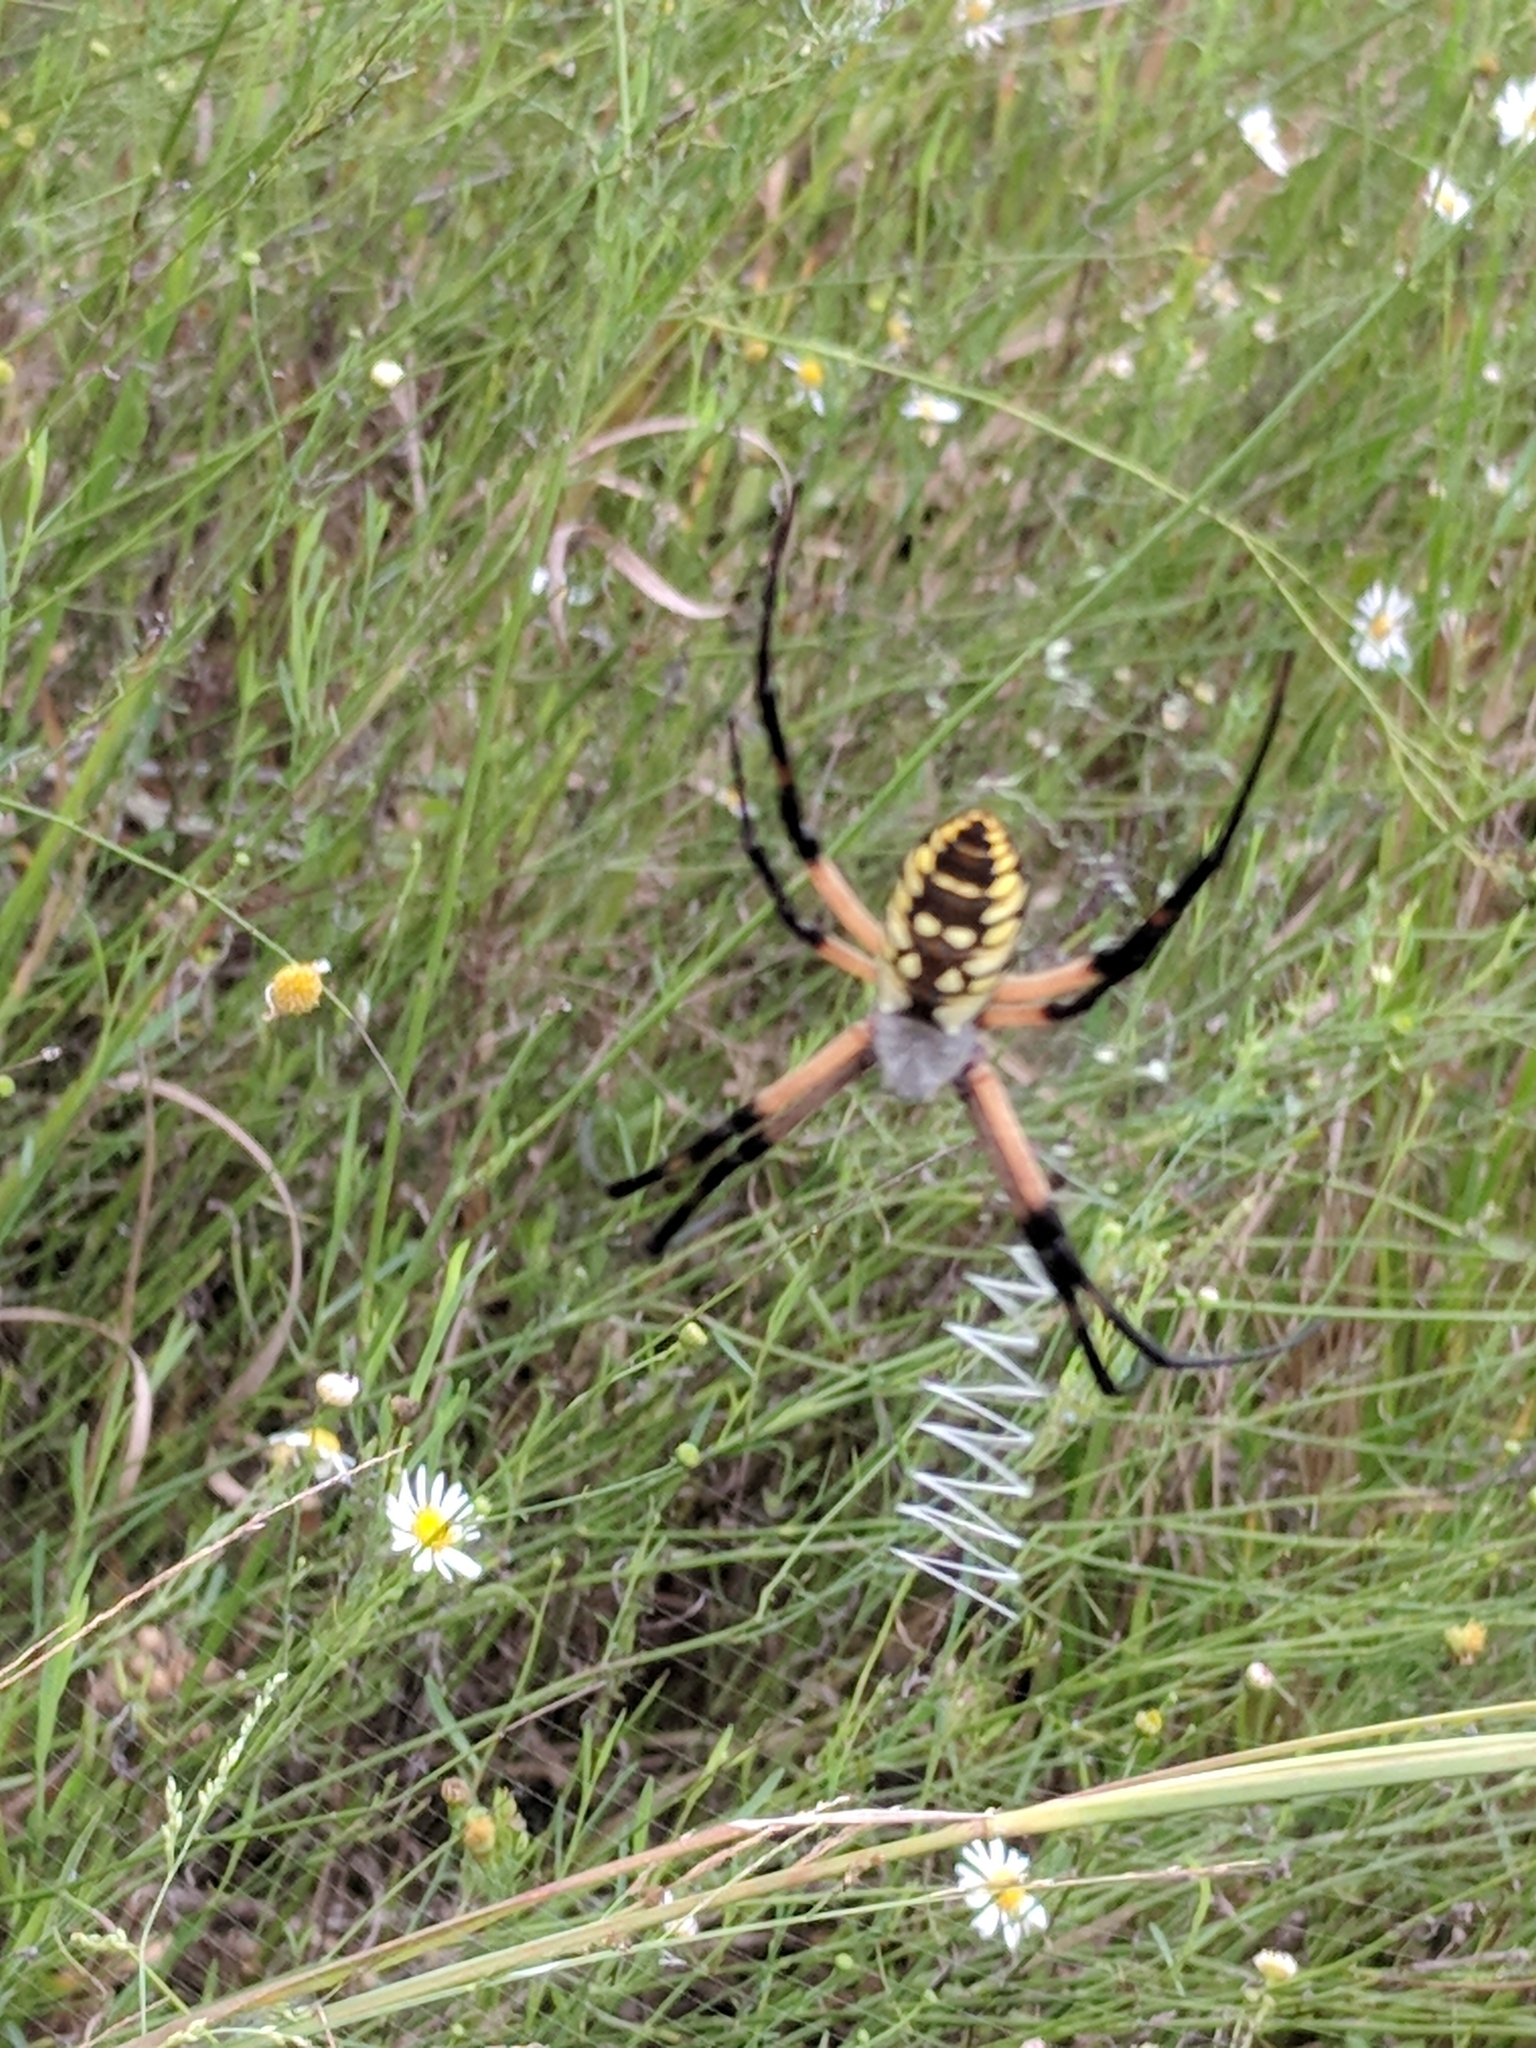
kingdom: Animalia
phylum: Arthropoda
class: Arachnida
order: Araneae
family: Araneidae
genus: Argiope
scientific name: Argiope aurantia
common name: Orb weavers
